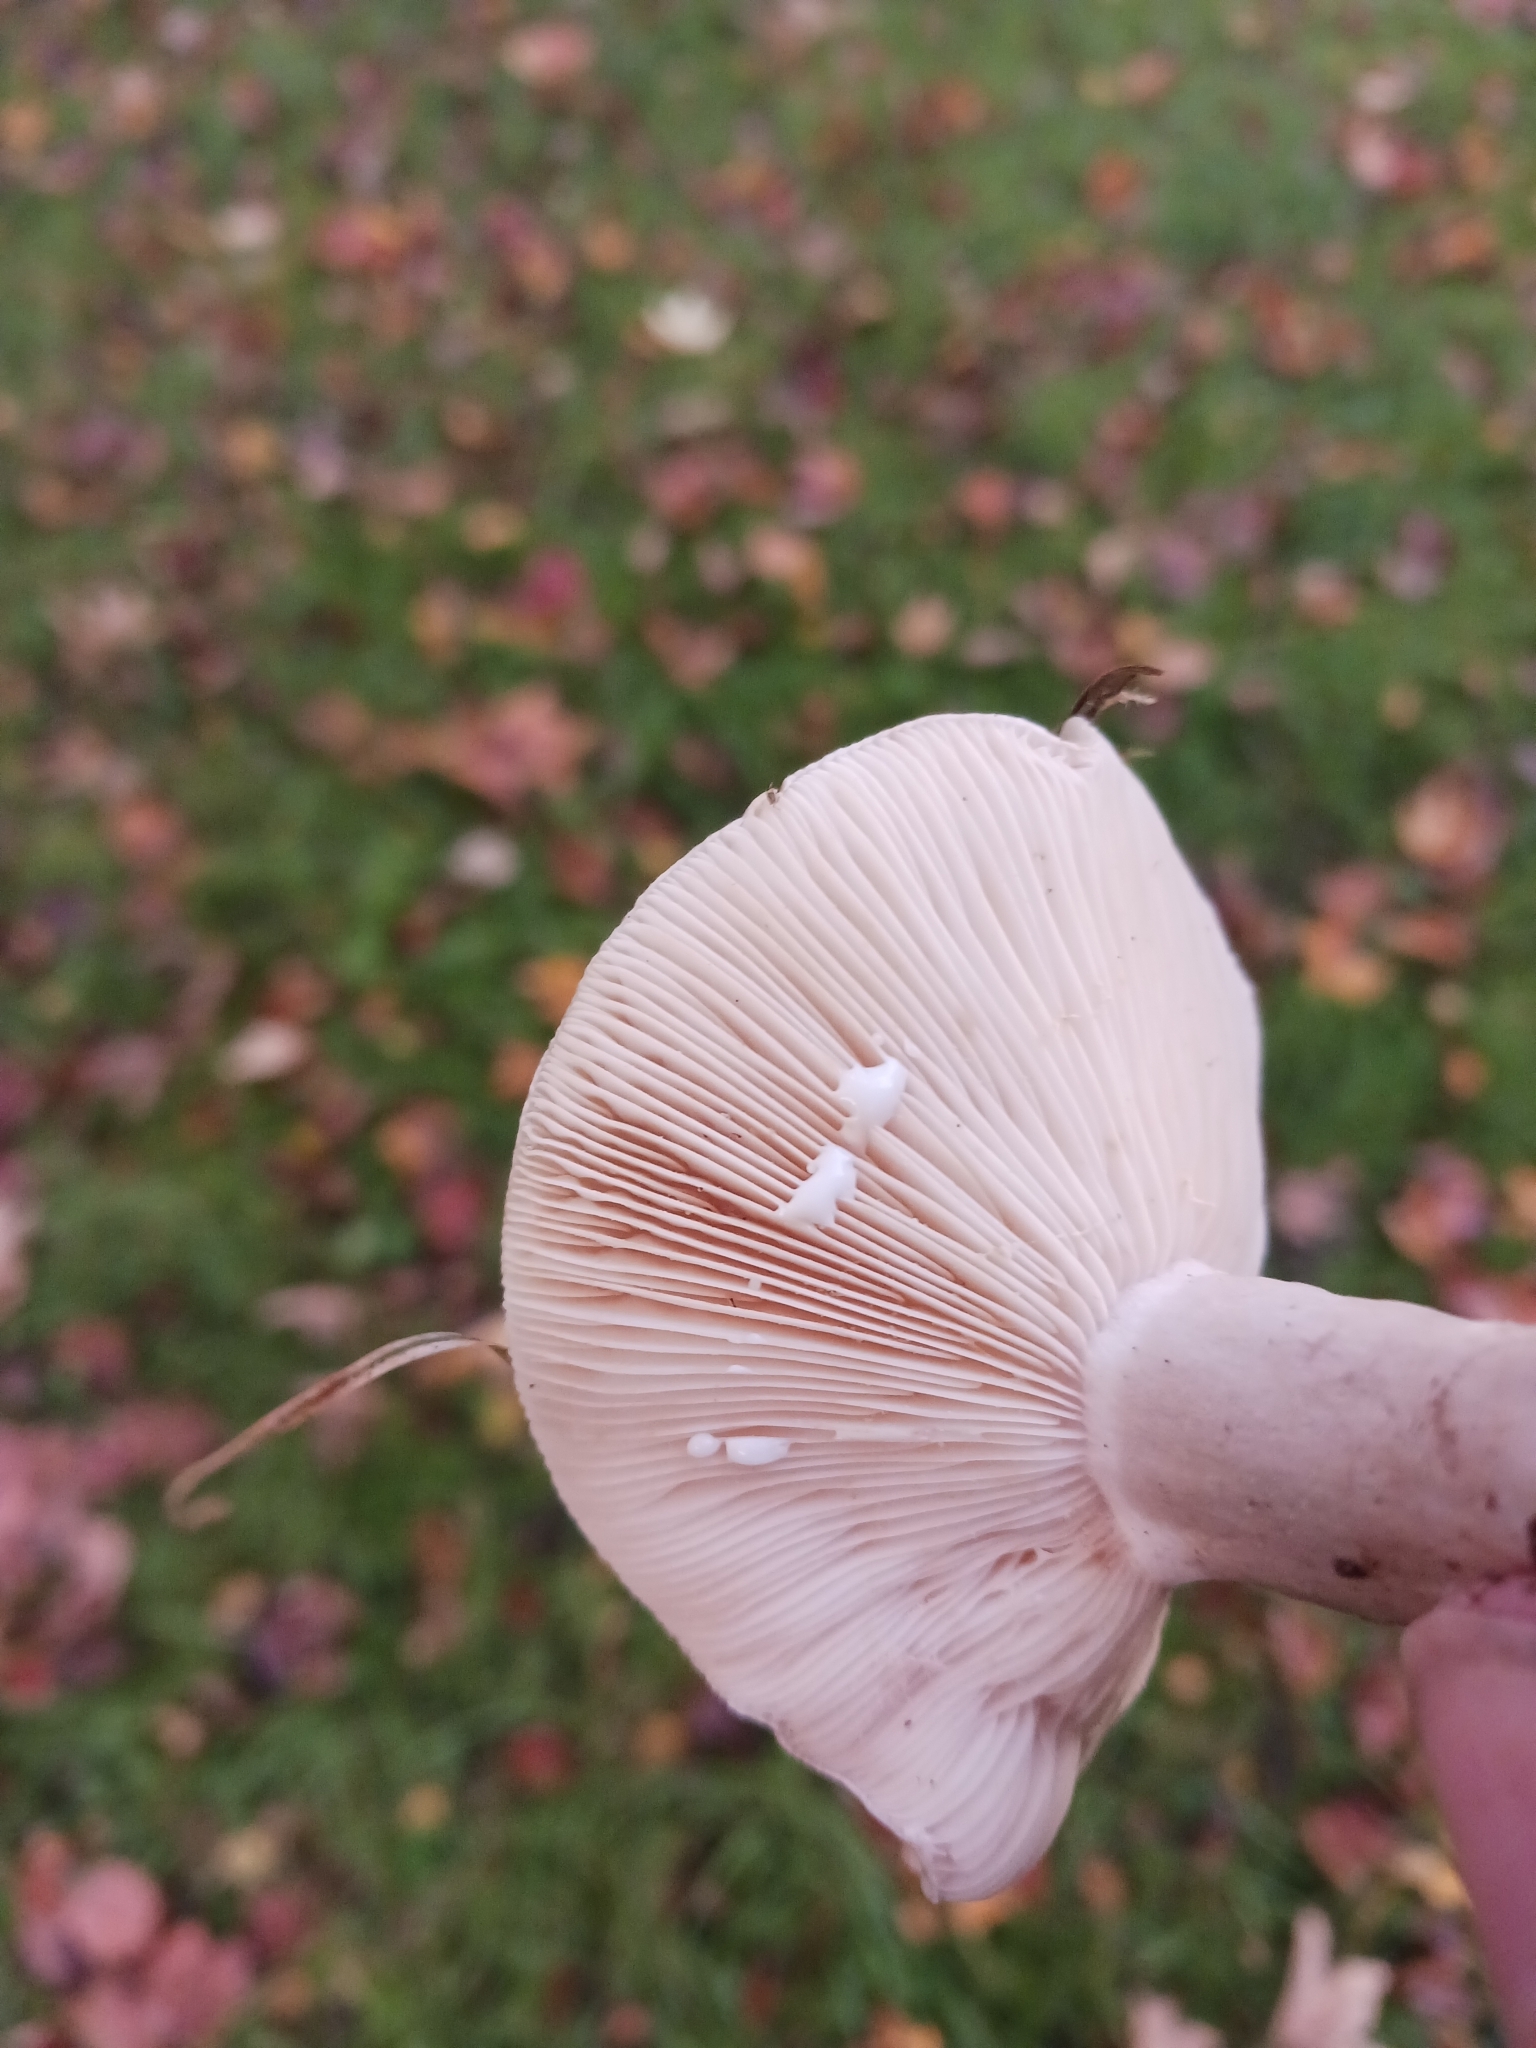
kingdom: Fungi
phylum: Basidiomycota
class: Agaricomycetes
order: Russulales
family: Russulaceae
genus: Lactarius
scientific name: Lactarius blennius
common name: Beech milkcap
